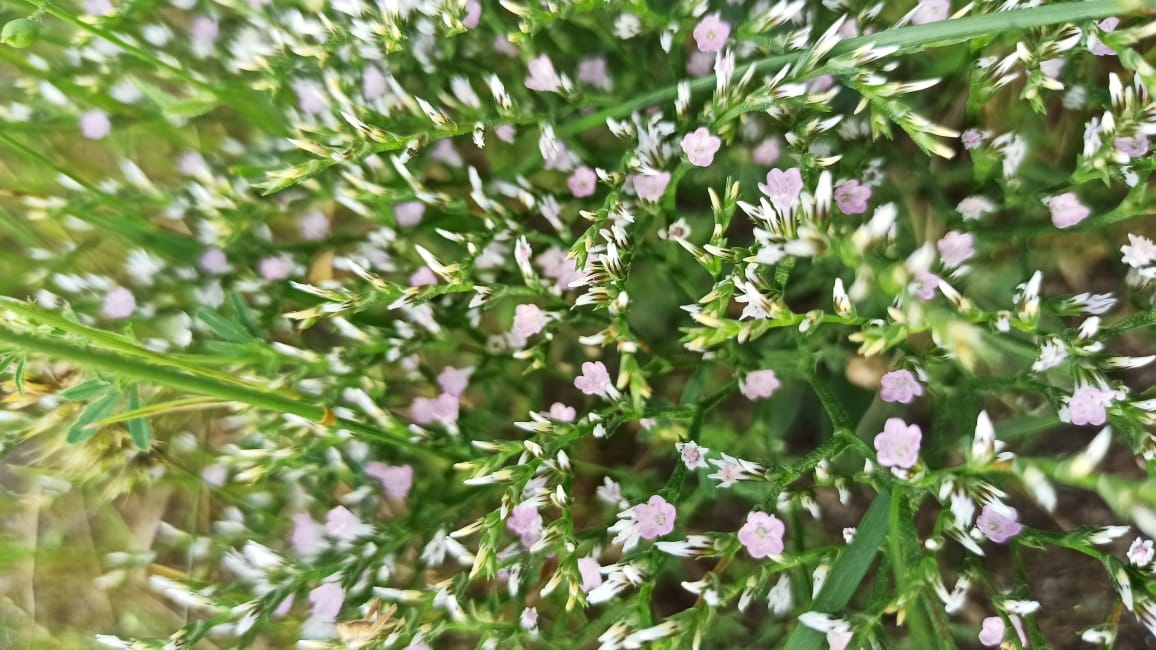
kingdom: Plantae
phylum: Tracheophyta
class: Magnoliopsida
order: Caryophyllales
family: Plumbaginaceae
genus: Goniolimon
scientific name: Goniolimon tataricum
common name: Statice
